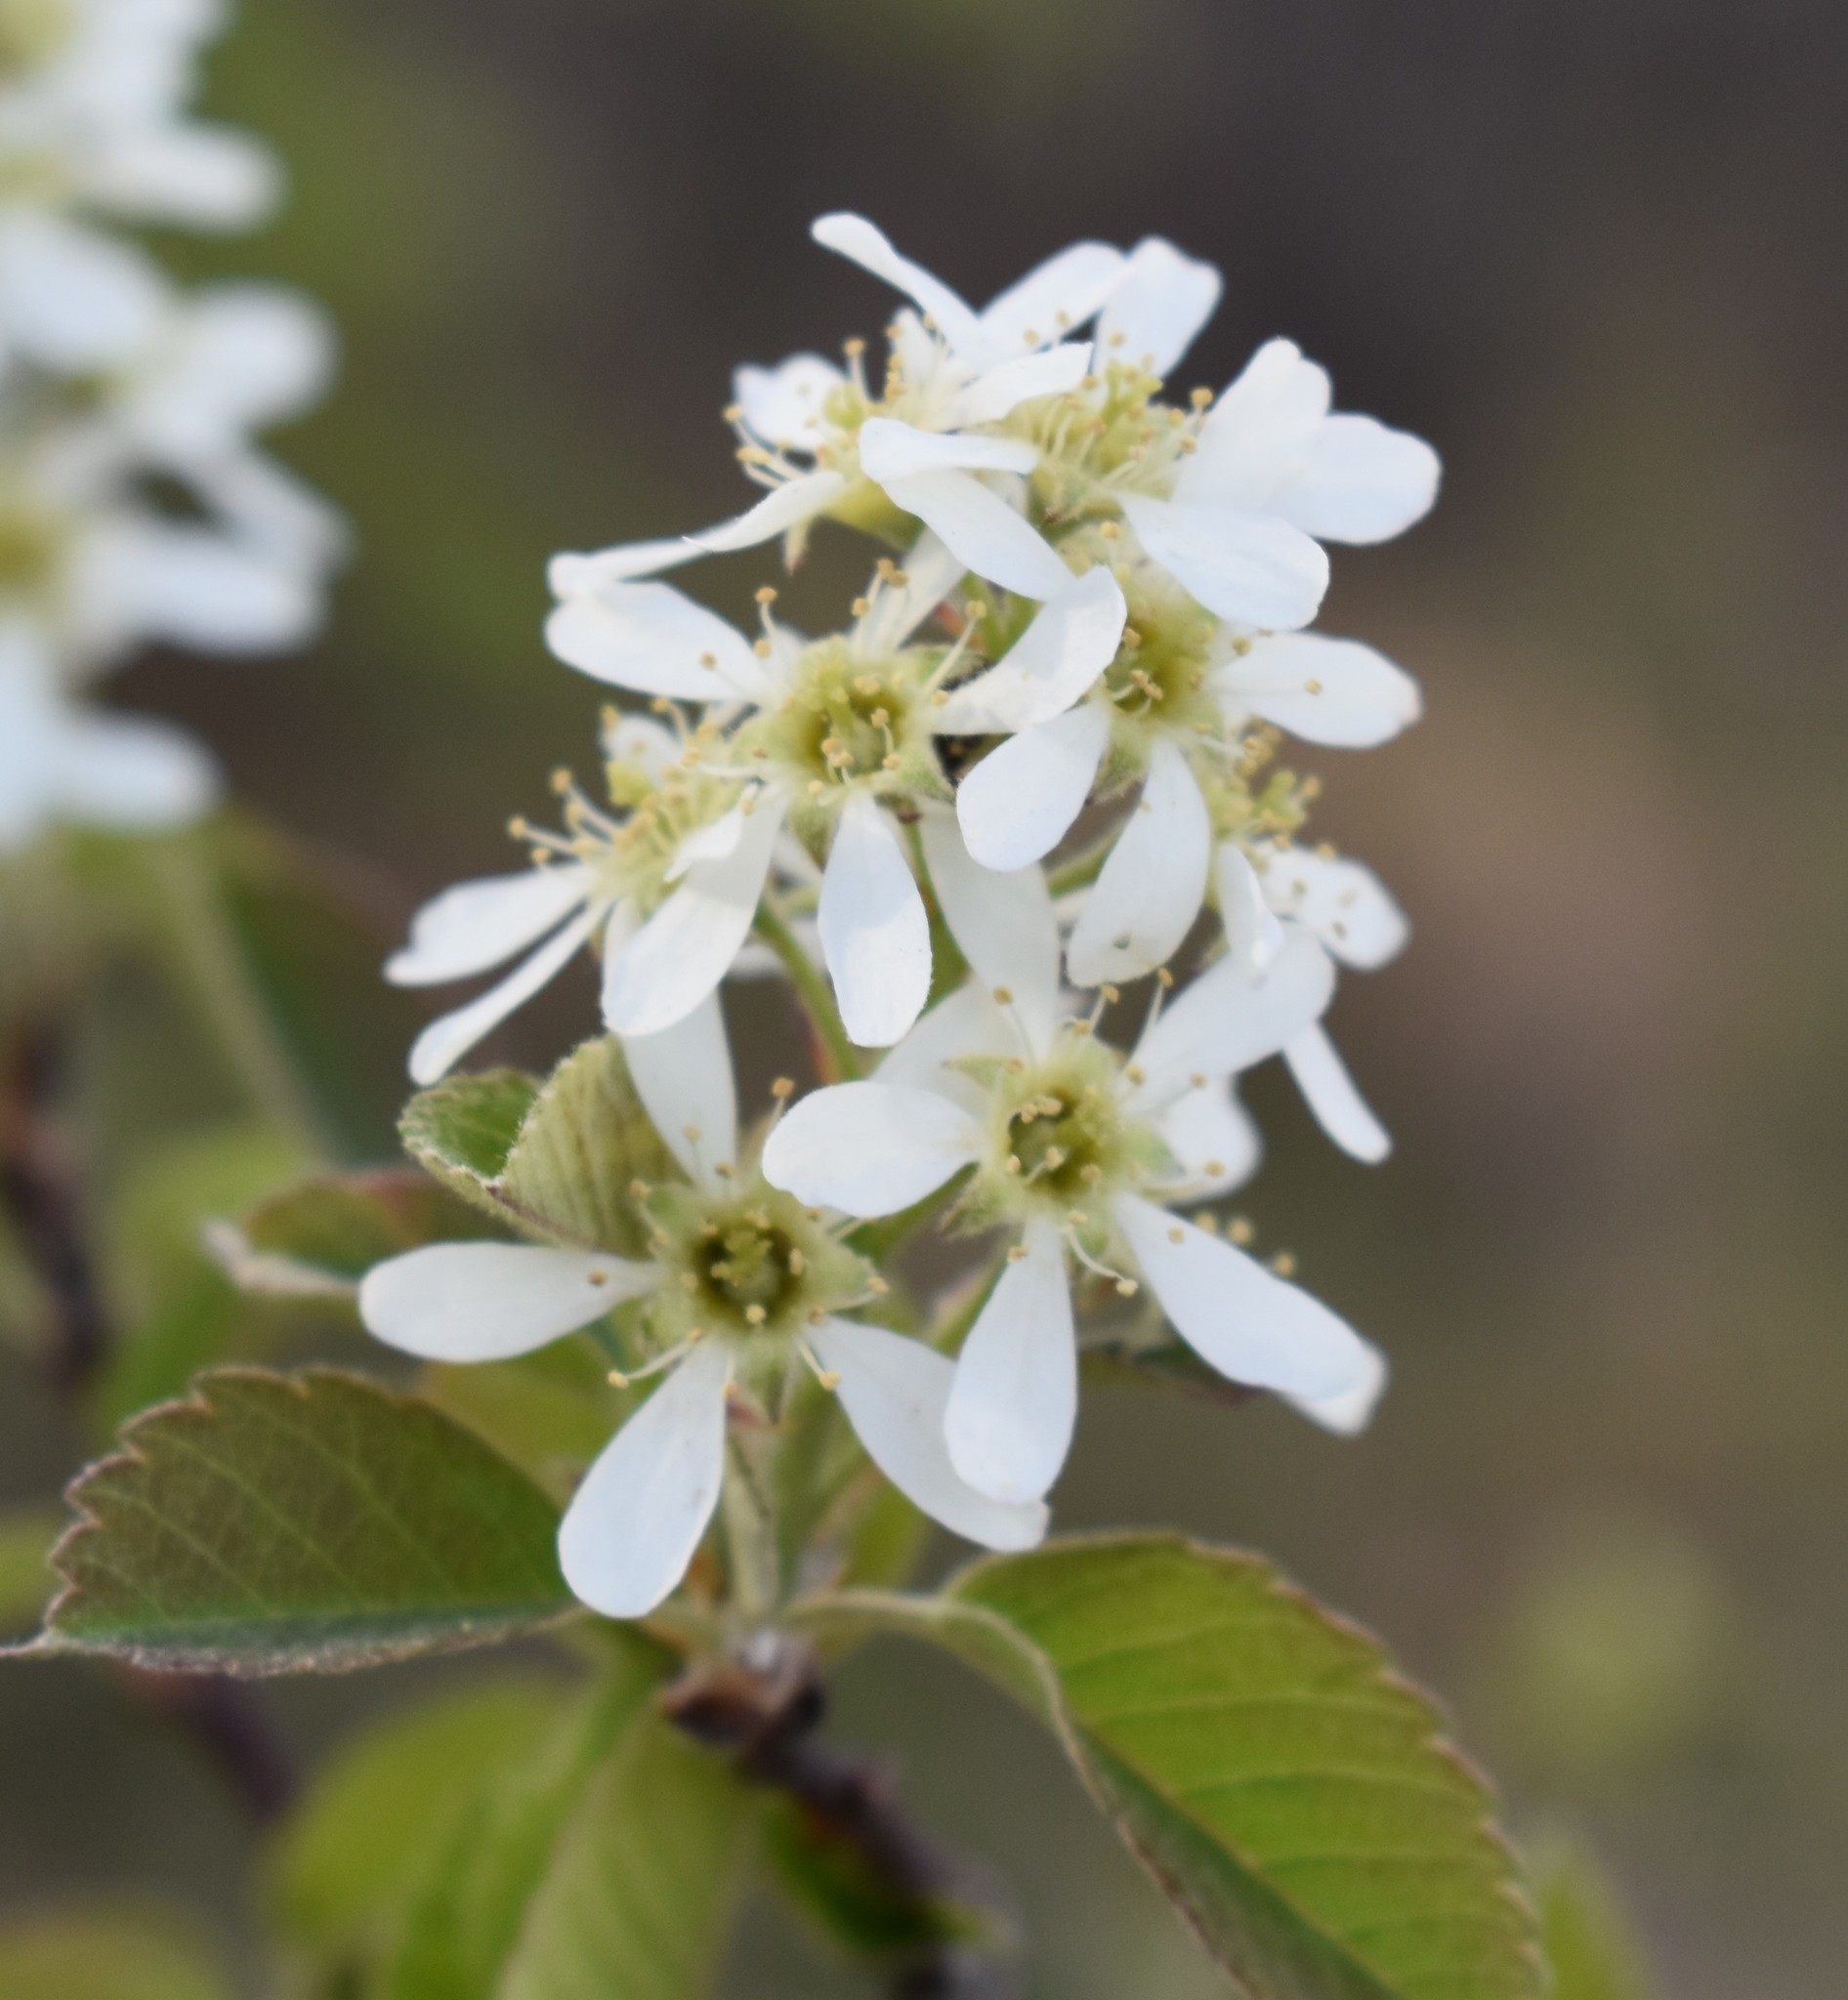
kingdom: Plantae
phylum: Tracheophyta
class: Magnoliopsida
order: Rosales
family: Rosaceae
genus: Amelanchier
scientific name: Amelanchier alnifolia
